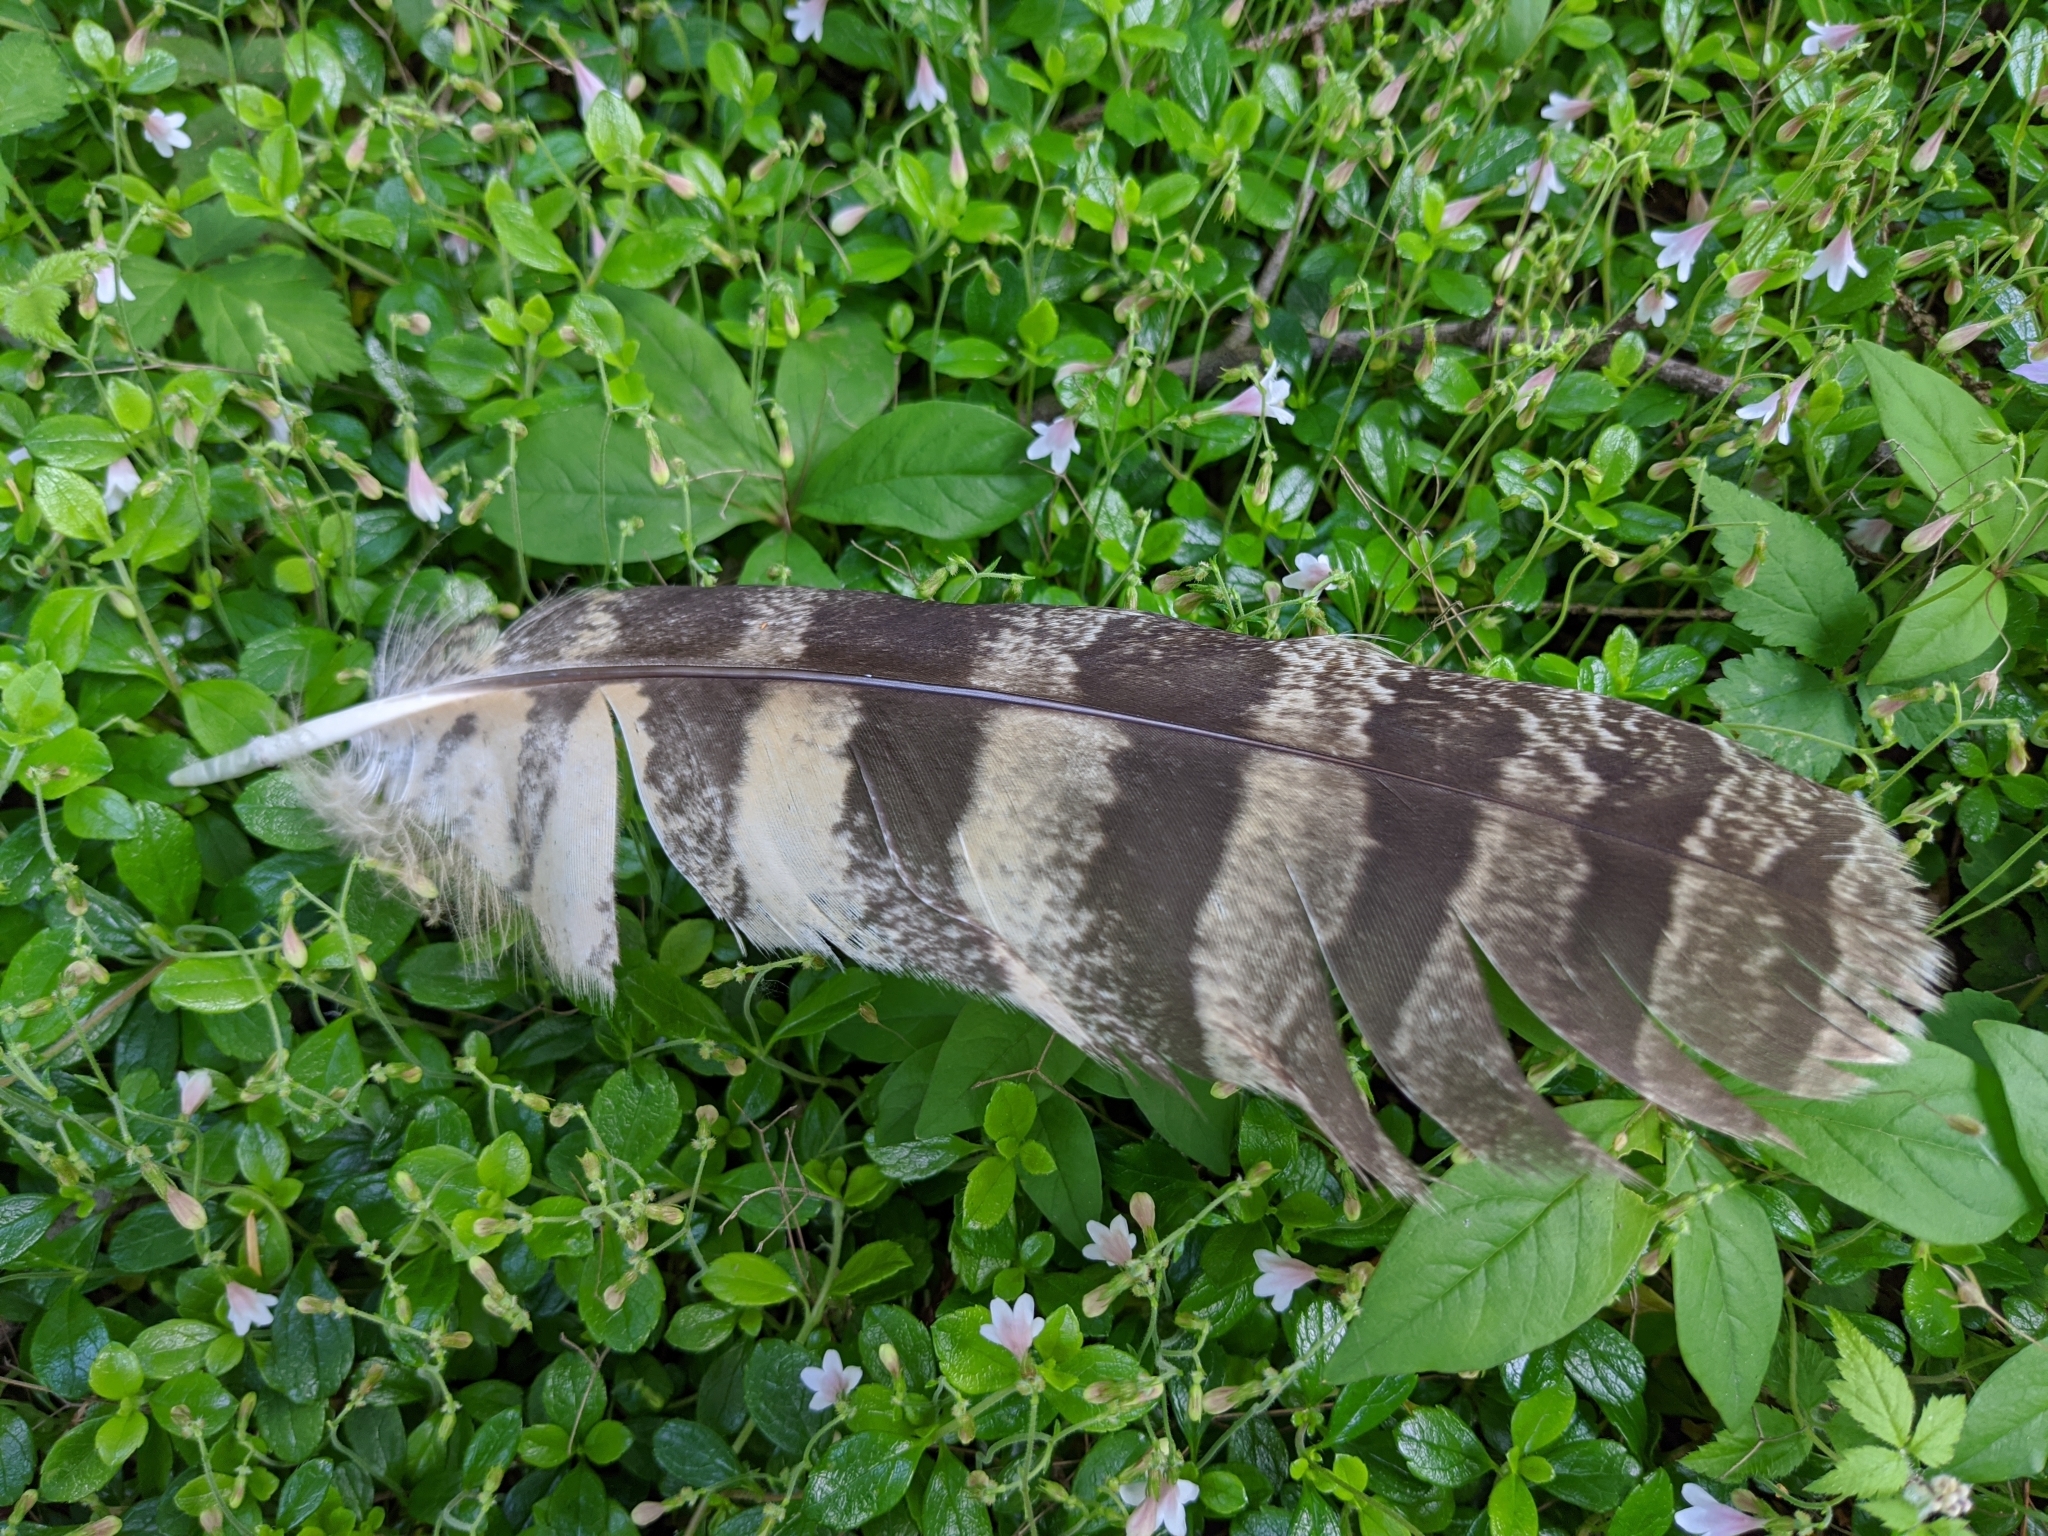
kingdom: Animalia
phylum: Chordata
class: Aves
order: Strigiformes
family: Strigidae
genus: Bubo
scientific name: Bubo virginianus
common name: Great horned owl
